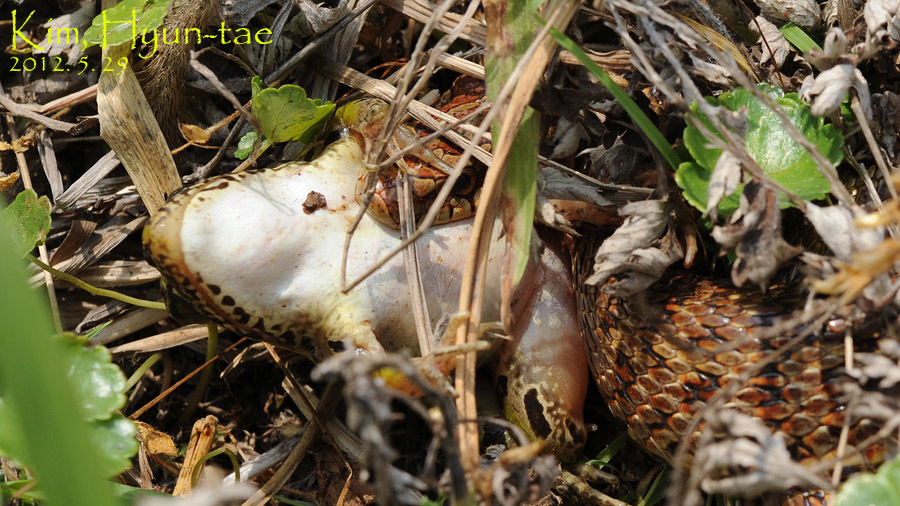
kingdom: Animalia
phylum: Chordata
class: Squamata
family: Colubridae
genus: Elaphe
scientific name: Elaphe dione
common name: Dione ratsnake
